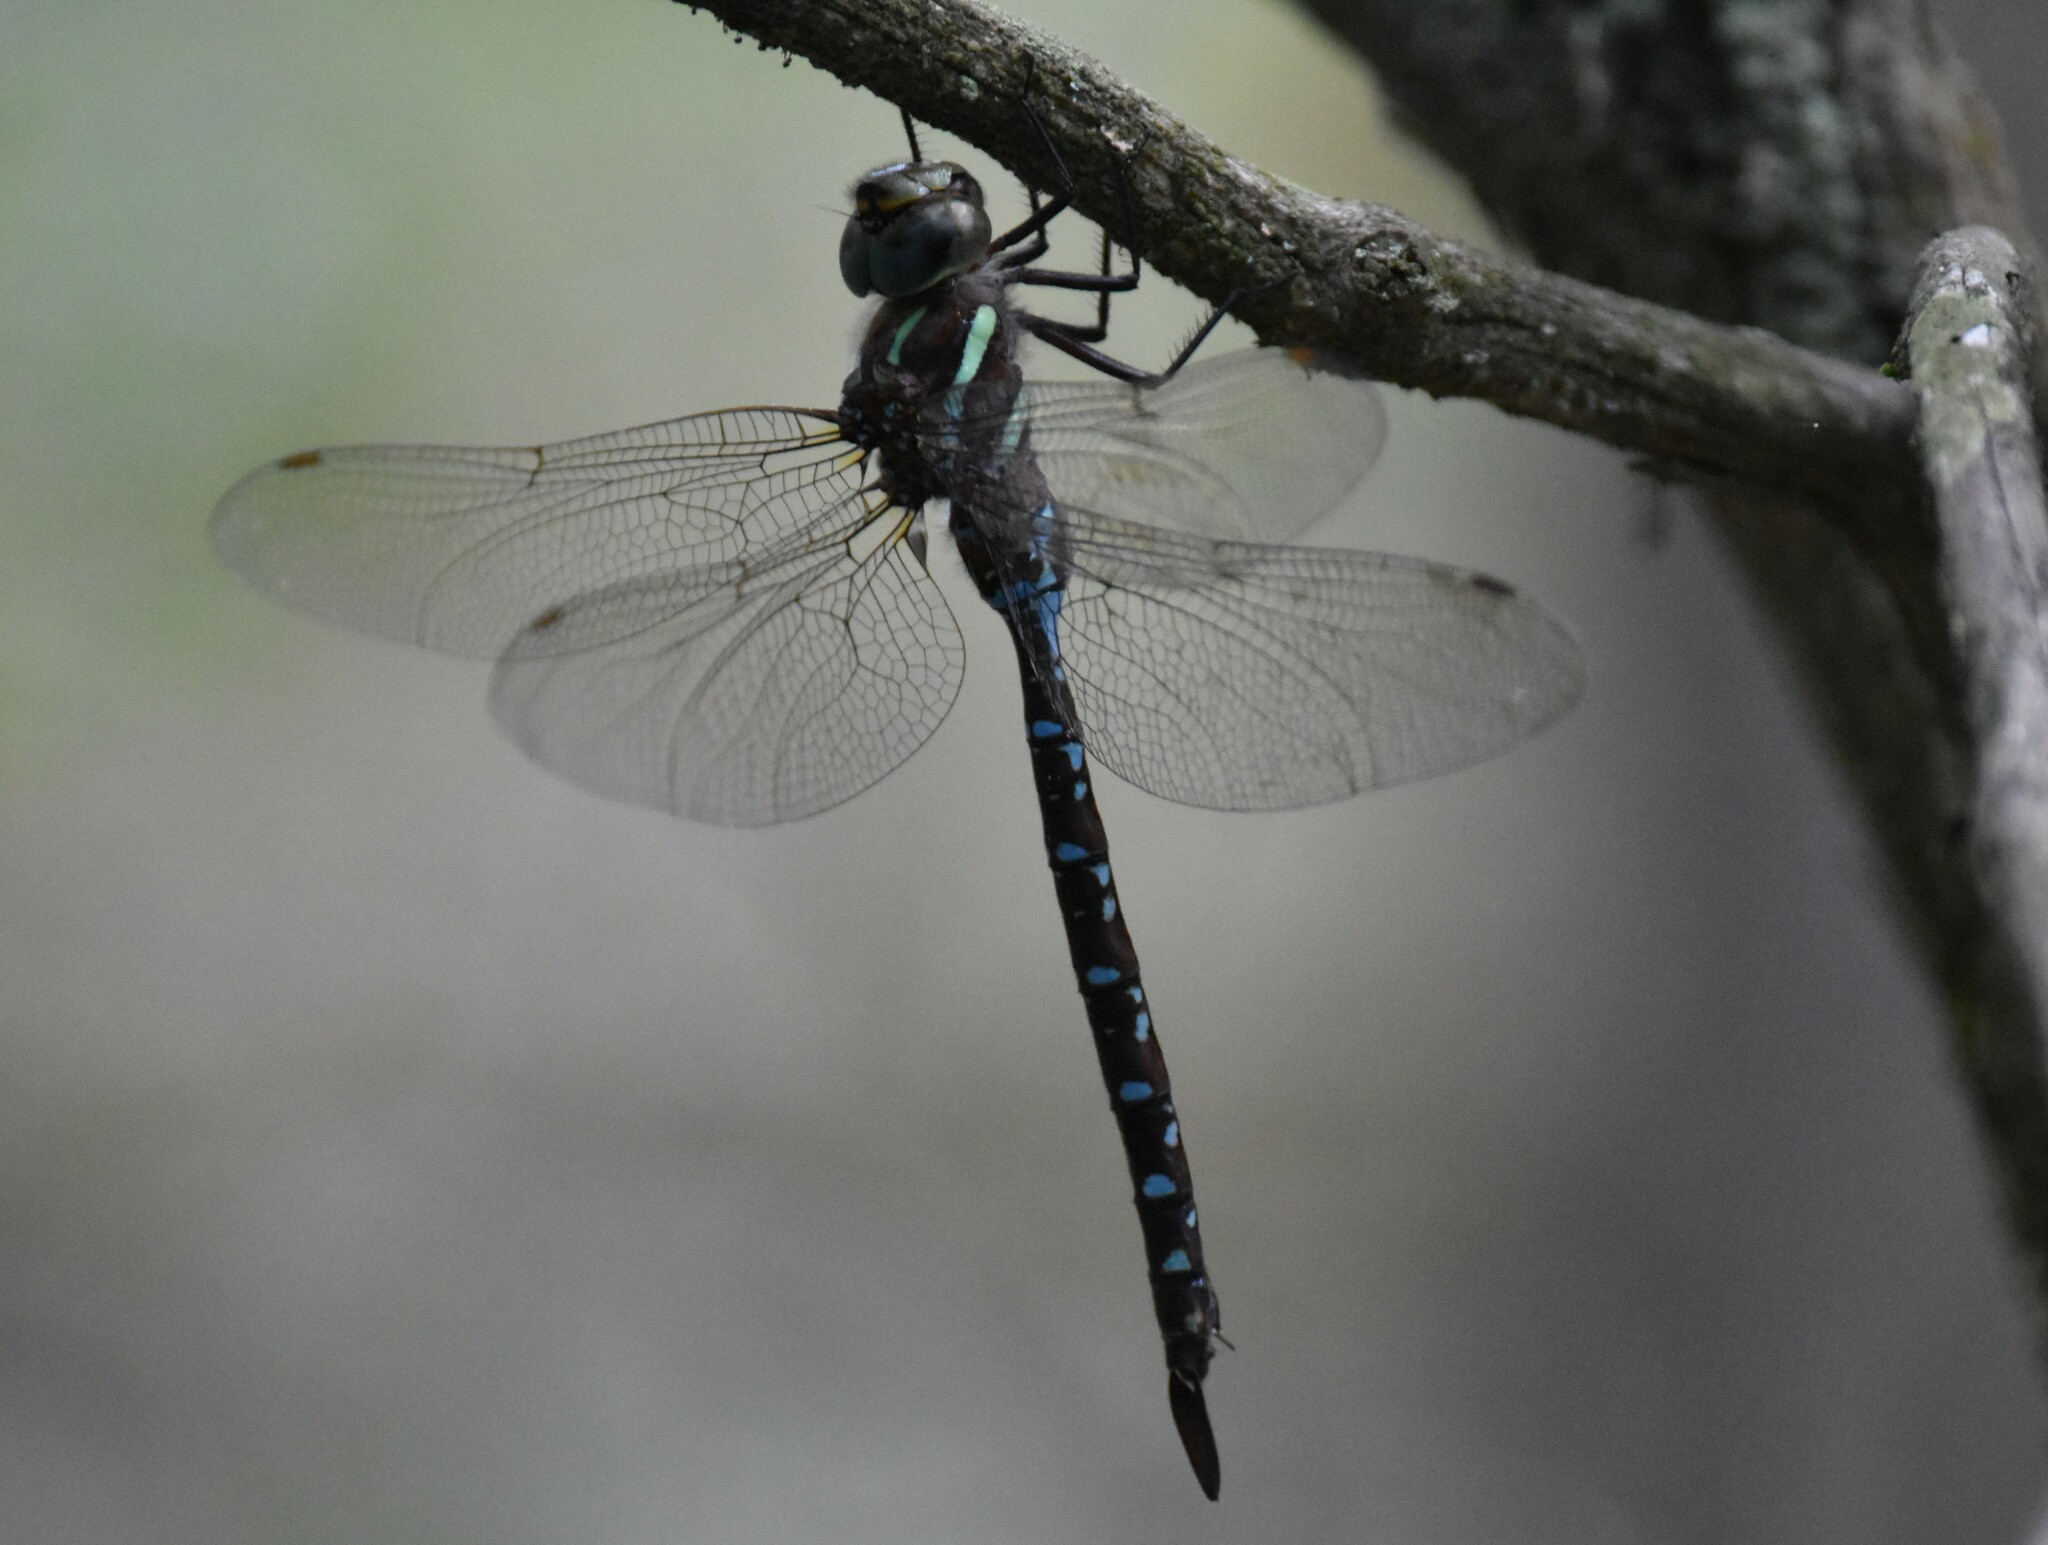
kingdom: Animalia
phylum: Arthropoda
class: Insecta
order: Odonata
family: Aeshnidae
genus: Aeshna
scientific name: Aeshna tuberculifera
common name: Aeschne à tubercules
